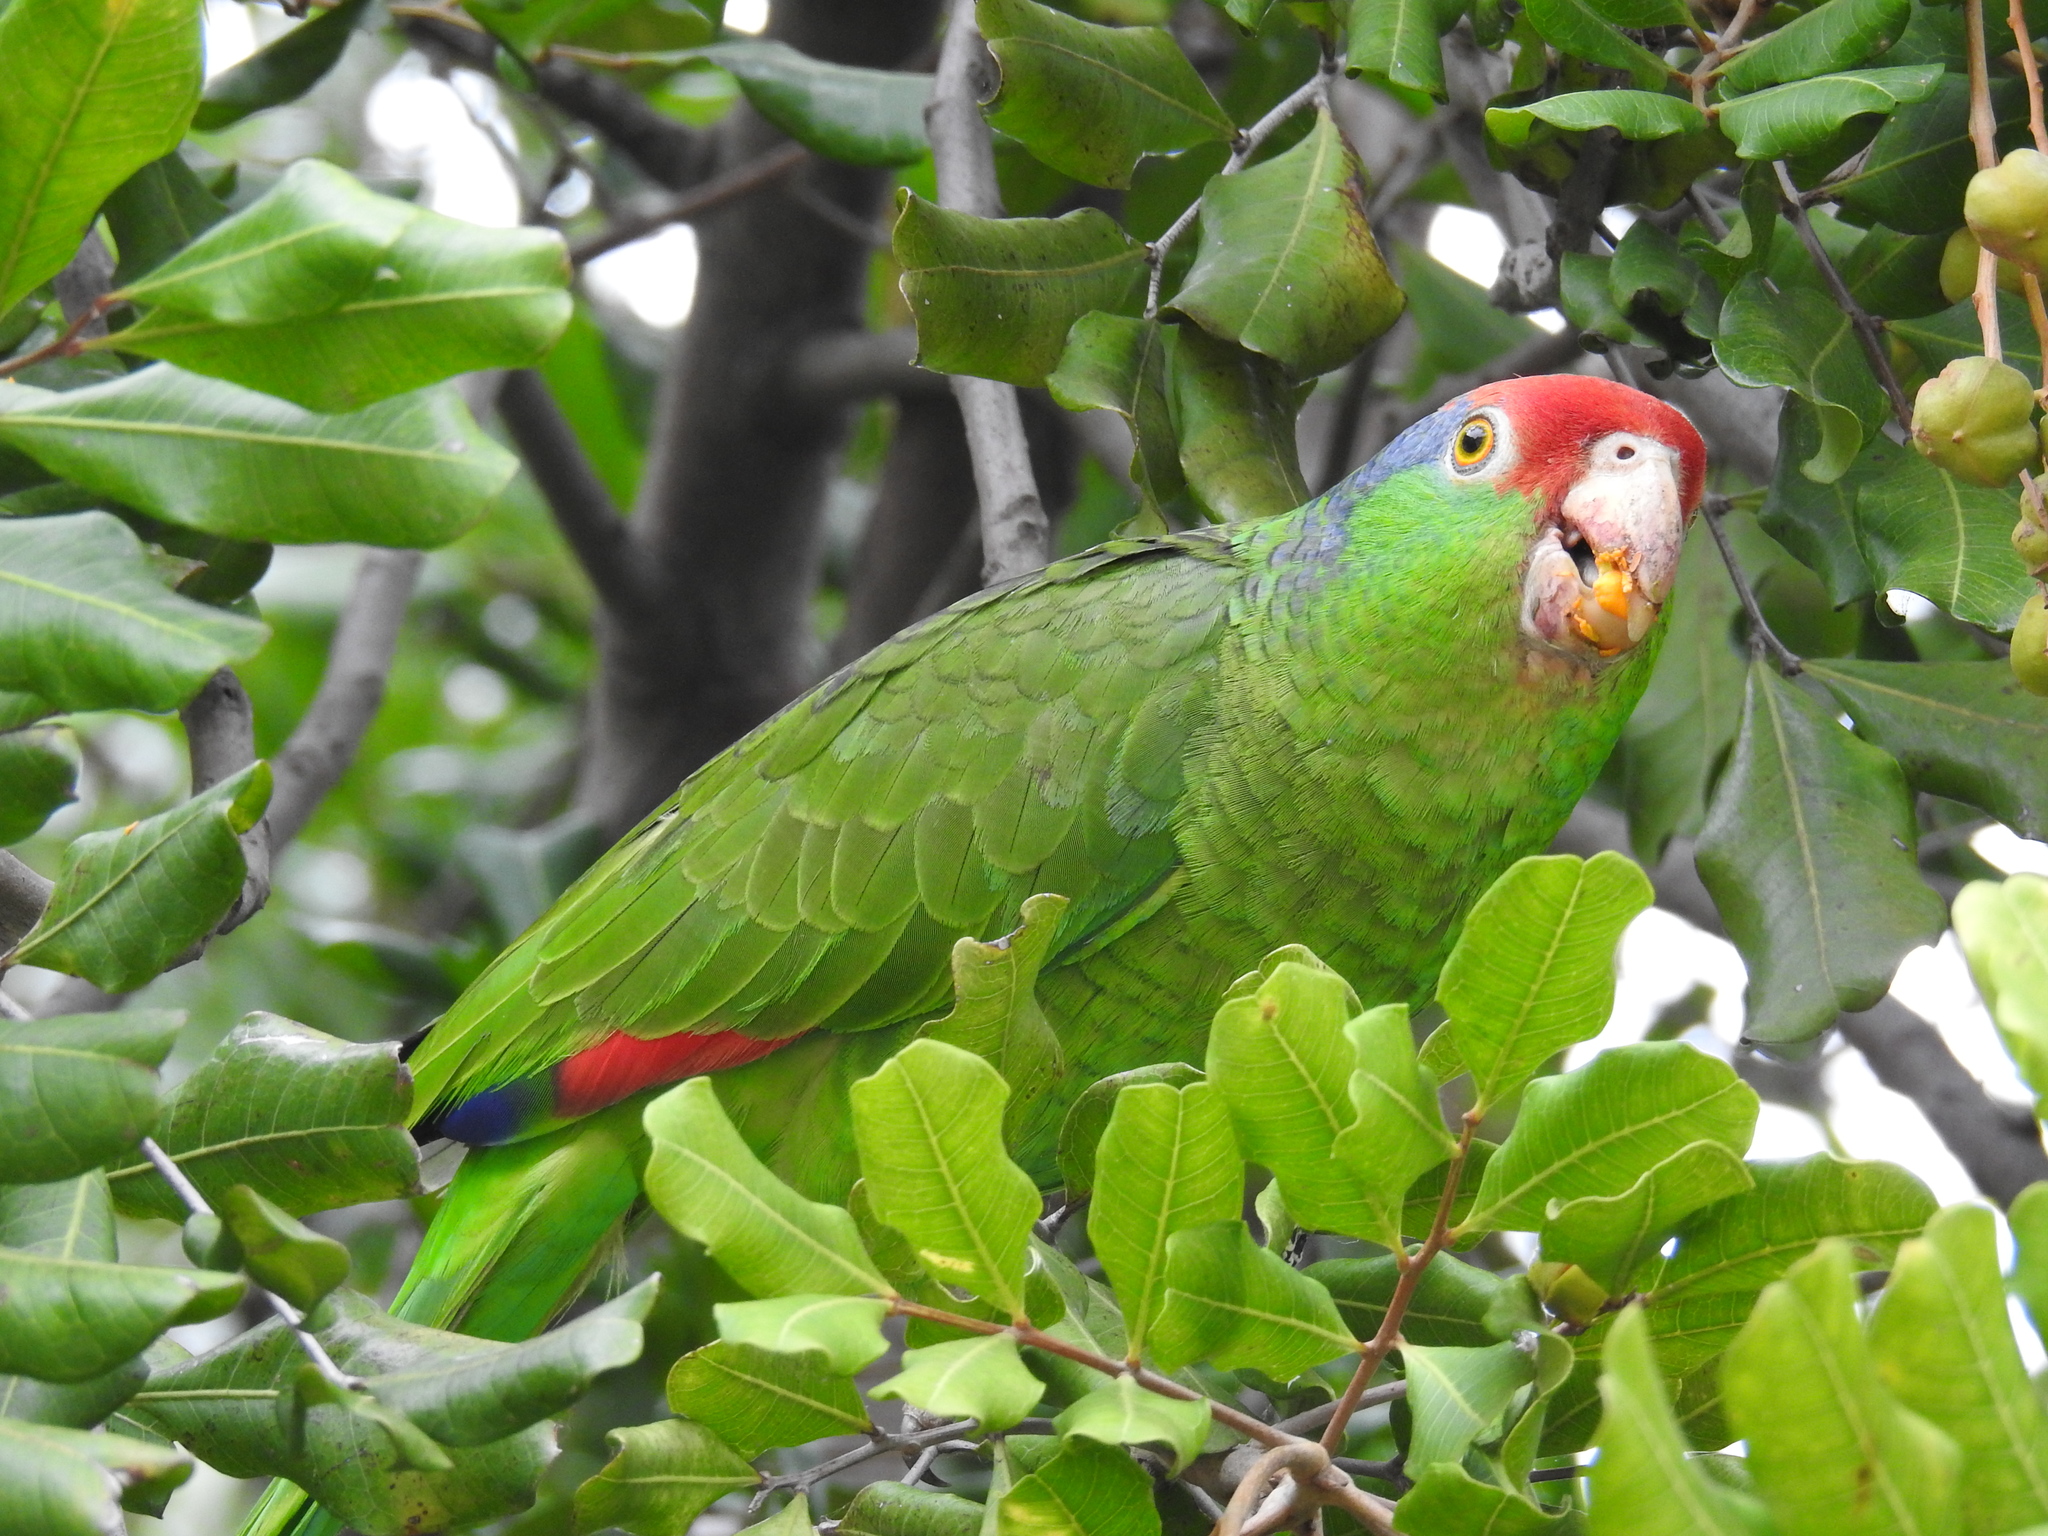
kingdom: Animalia
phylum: Chordata
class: Aves
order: Psittaciformes
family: Psittacidae
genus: Amazona
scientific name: Amazona viridigenalis
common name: Red-crowned amazon
